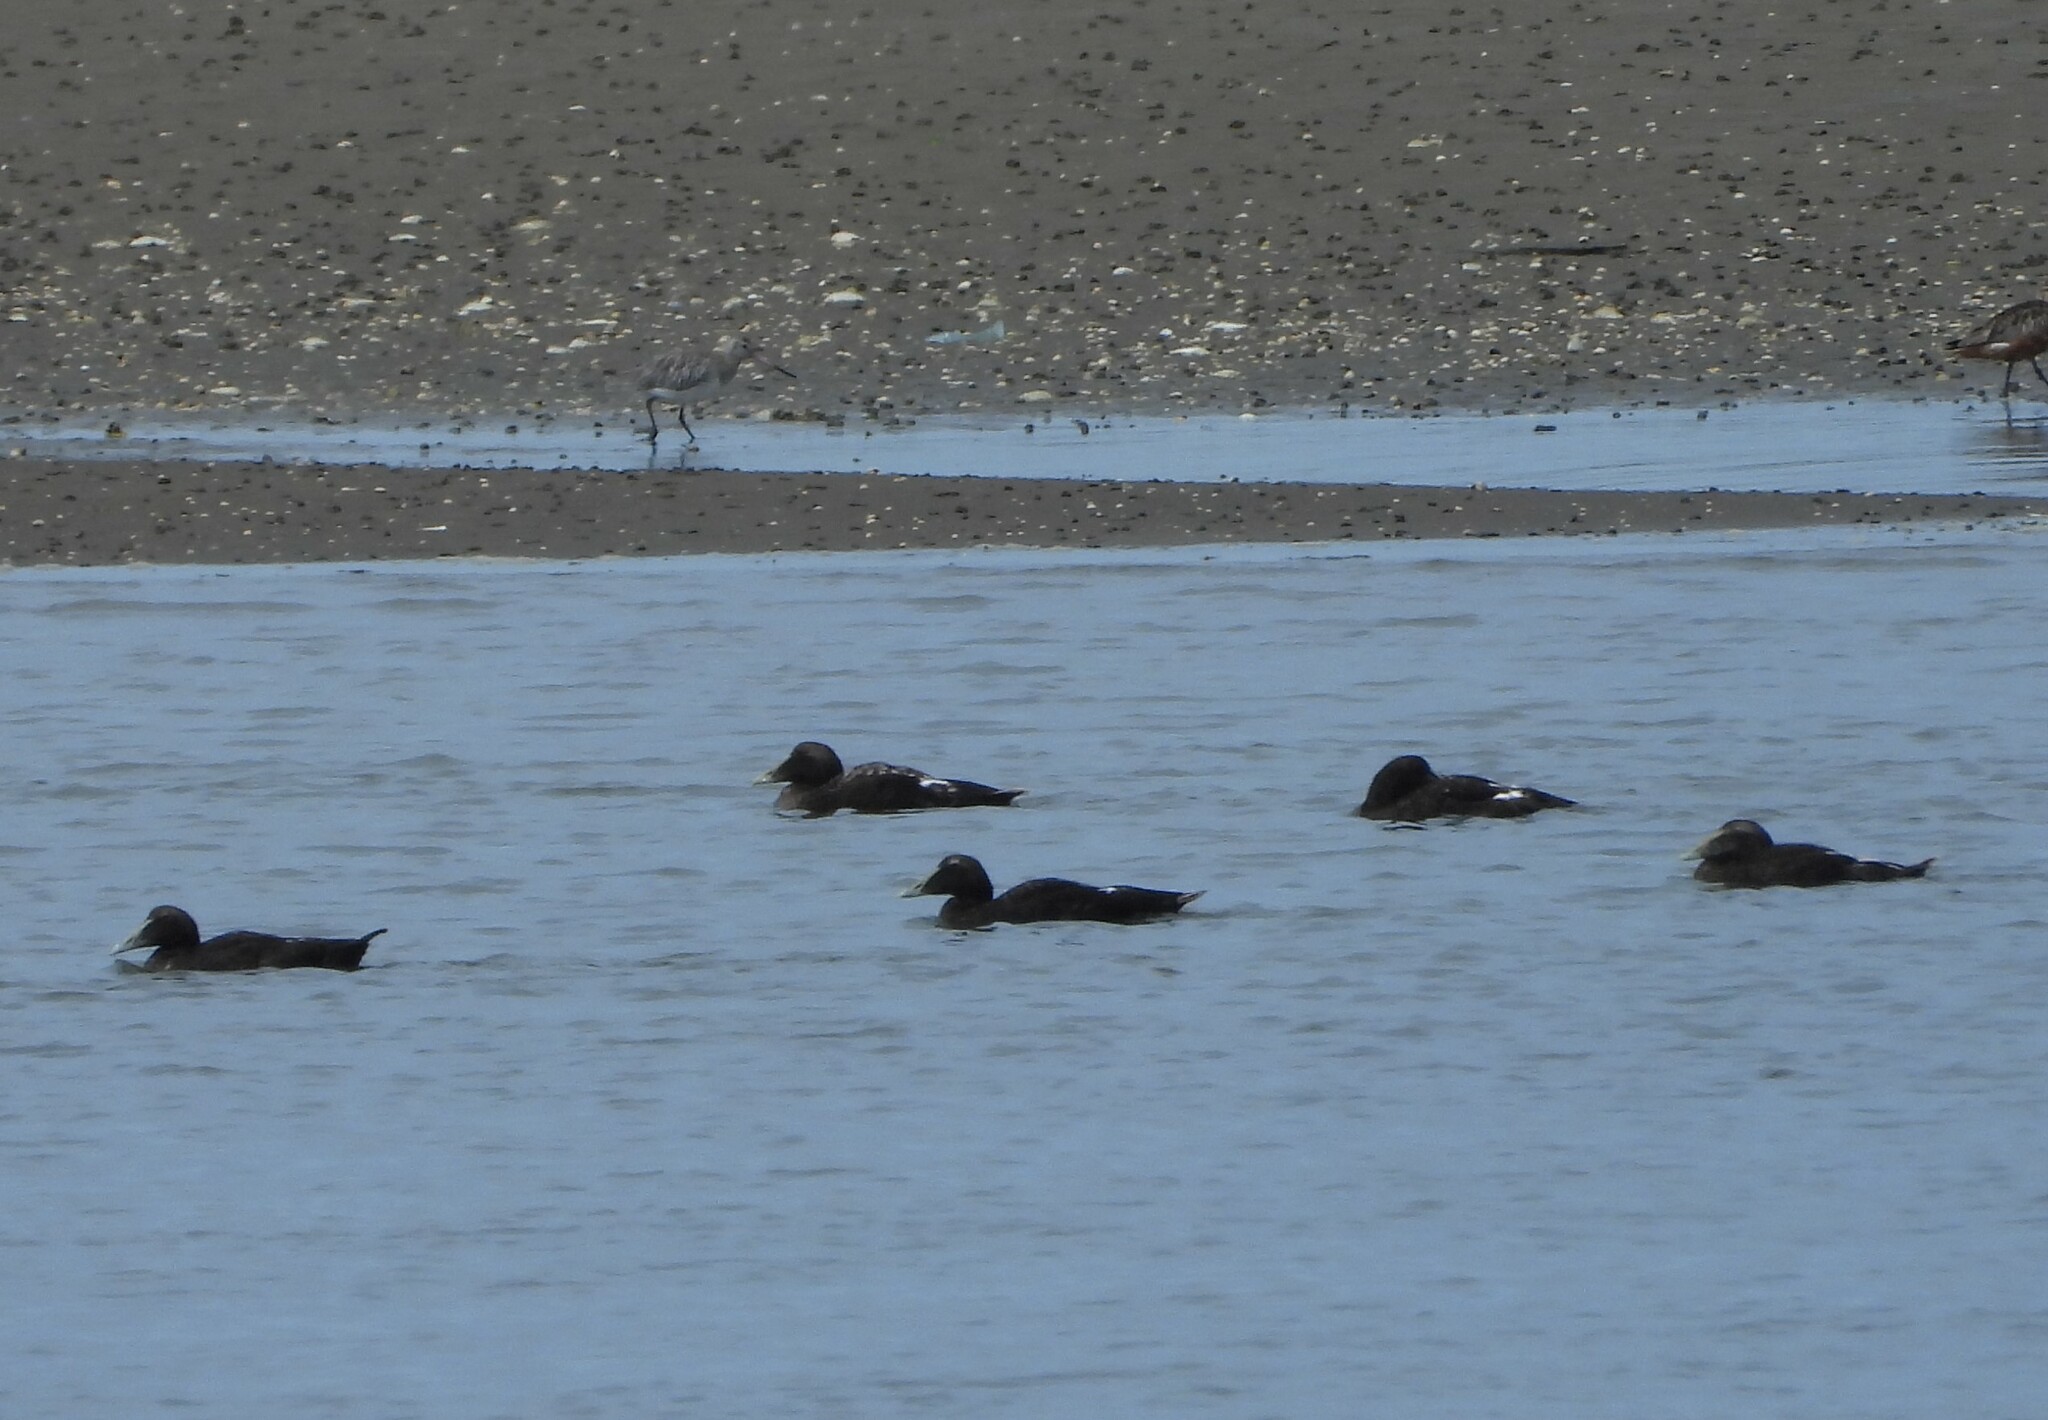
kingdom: Animalia
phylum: Chordata
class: Aves
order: Anseriformes
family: Anatidae
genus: Somateria
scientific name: Somateria mollissima
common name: Common eider
